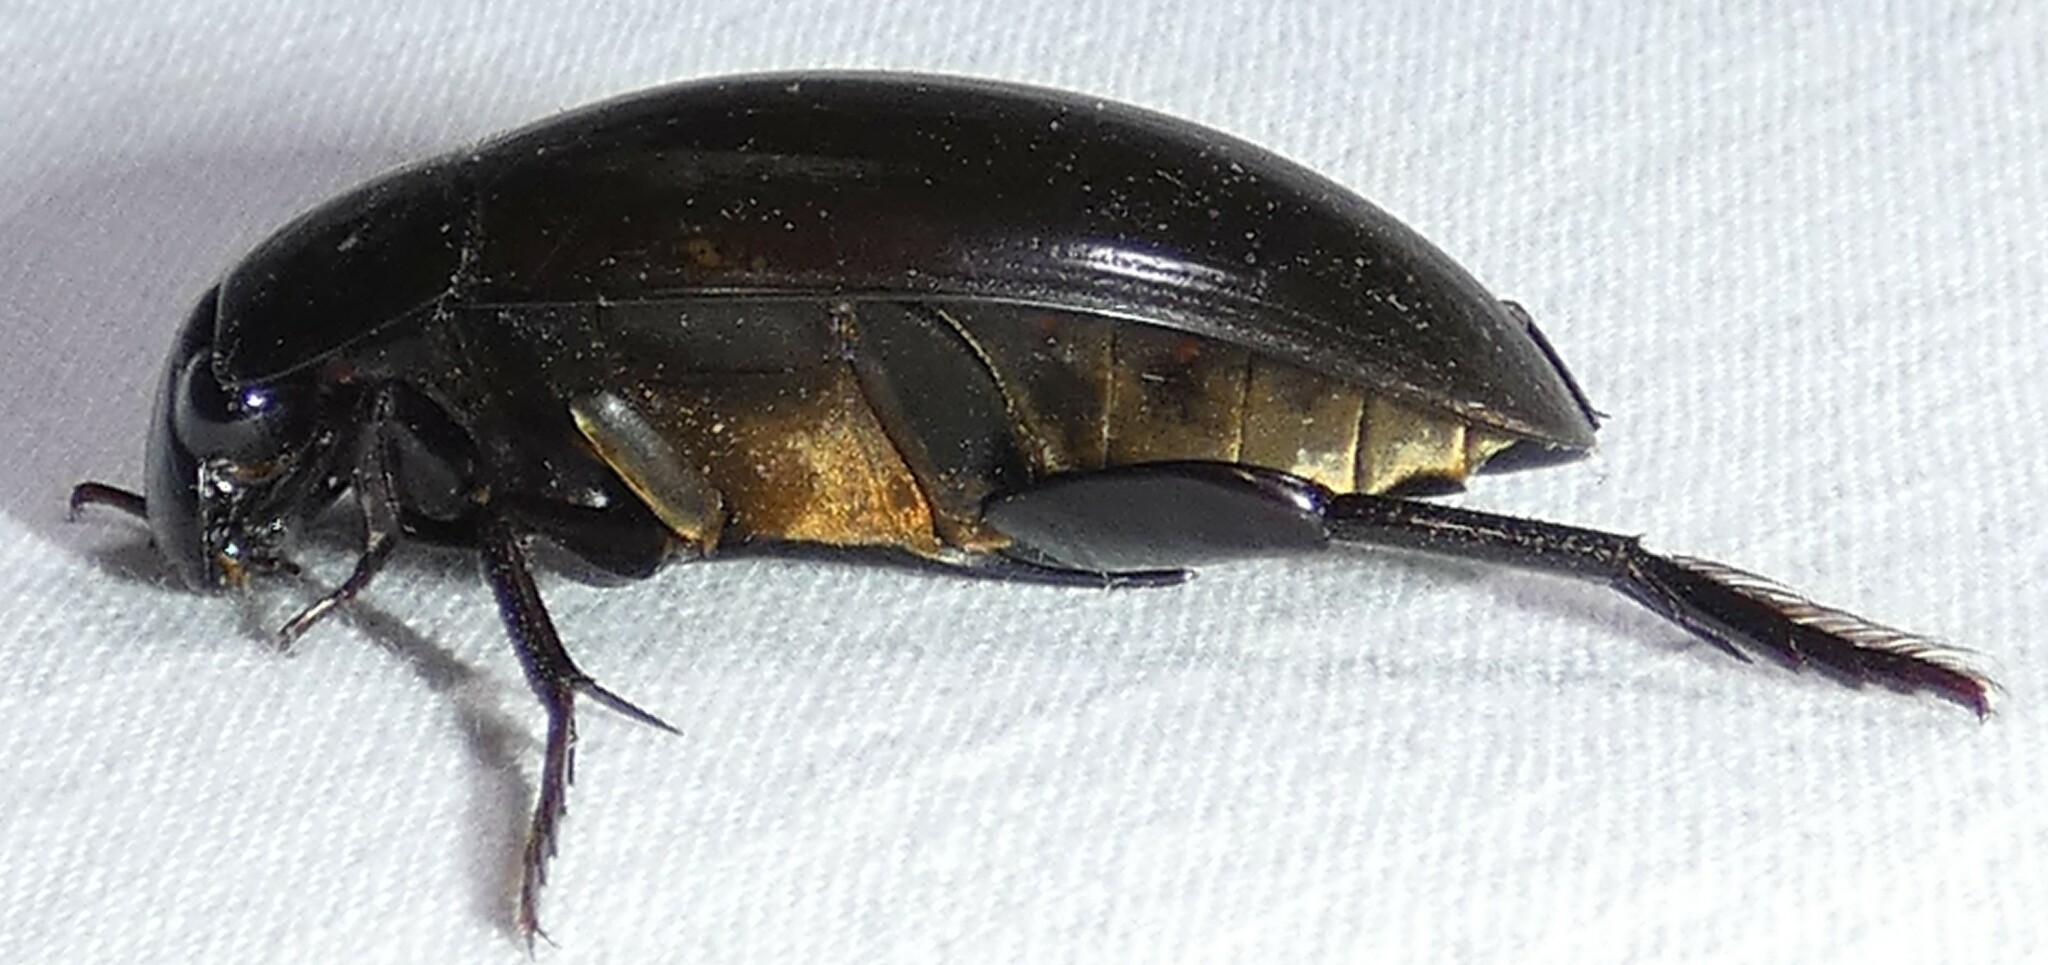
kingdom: Animalia
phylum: Arthropoda
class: Insecta
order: Coleoptera
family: Hydrophilidae
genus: Hydrophilus
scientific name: Hydrophilus ovatus
